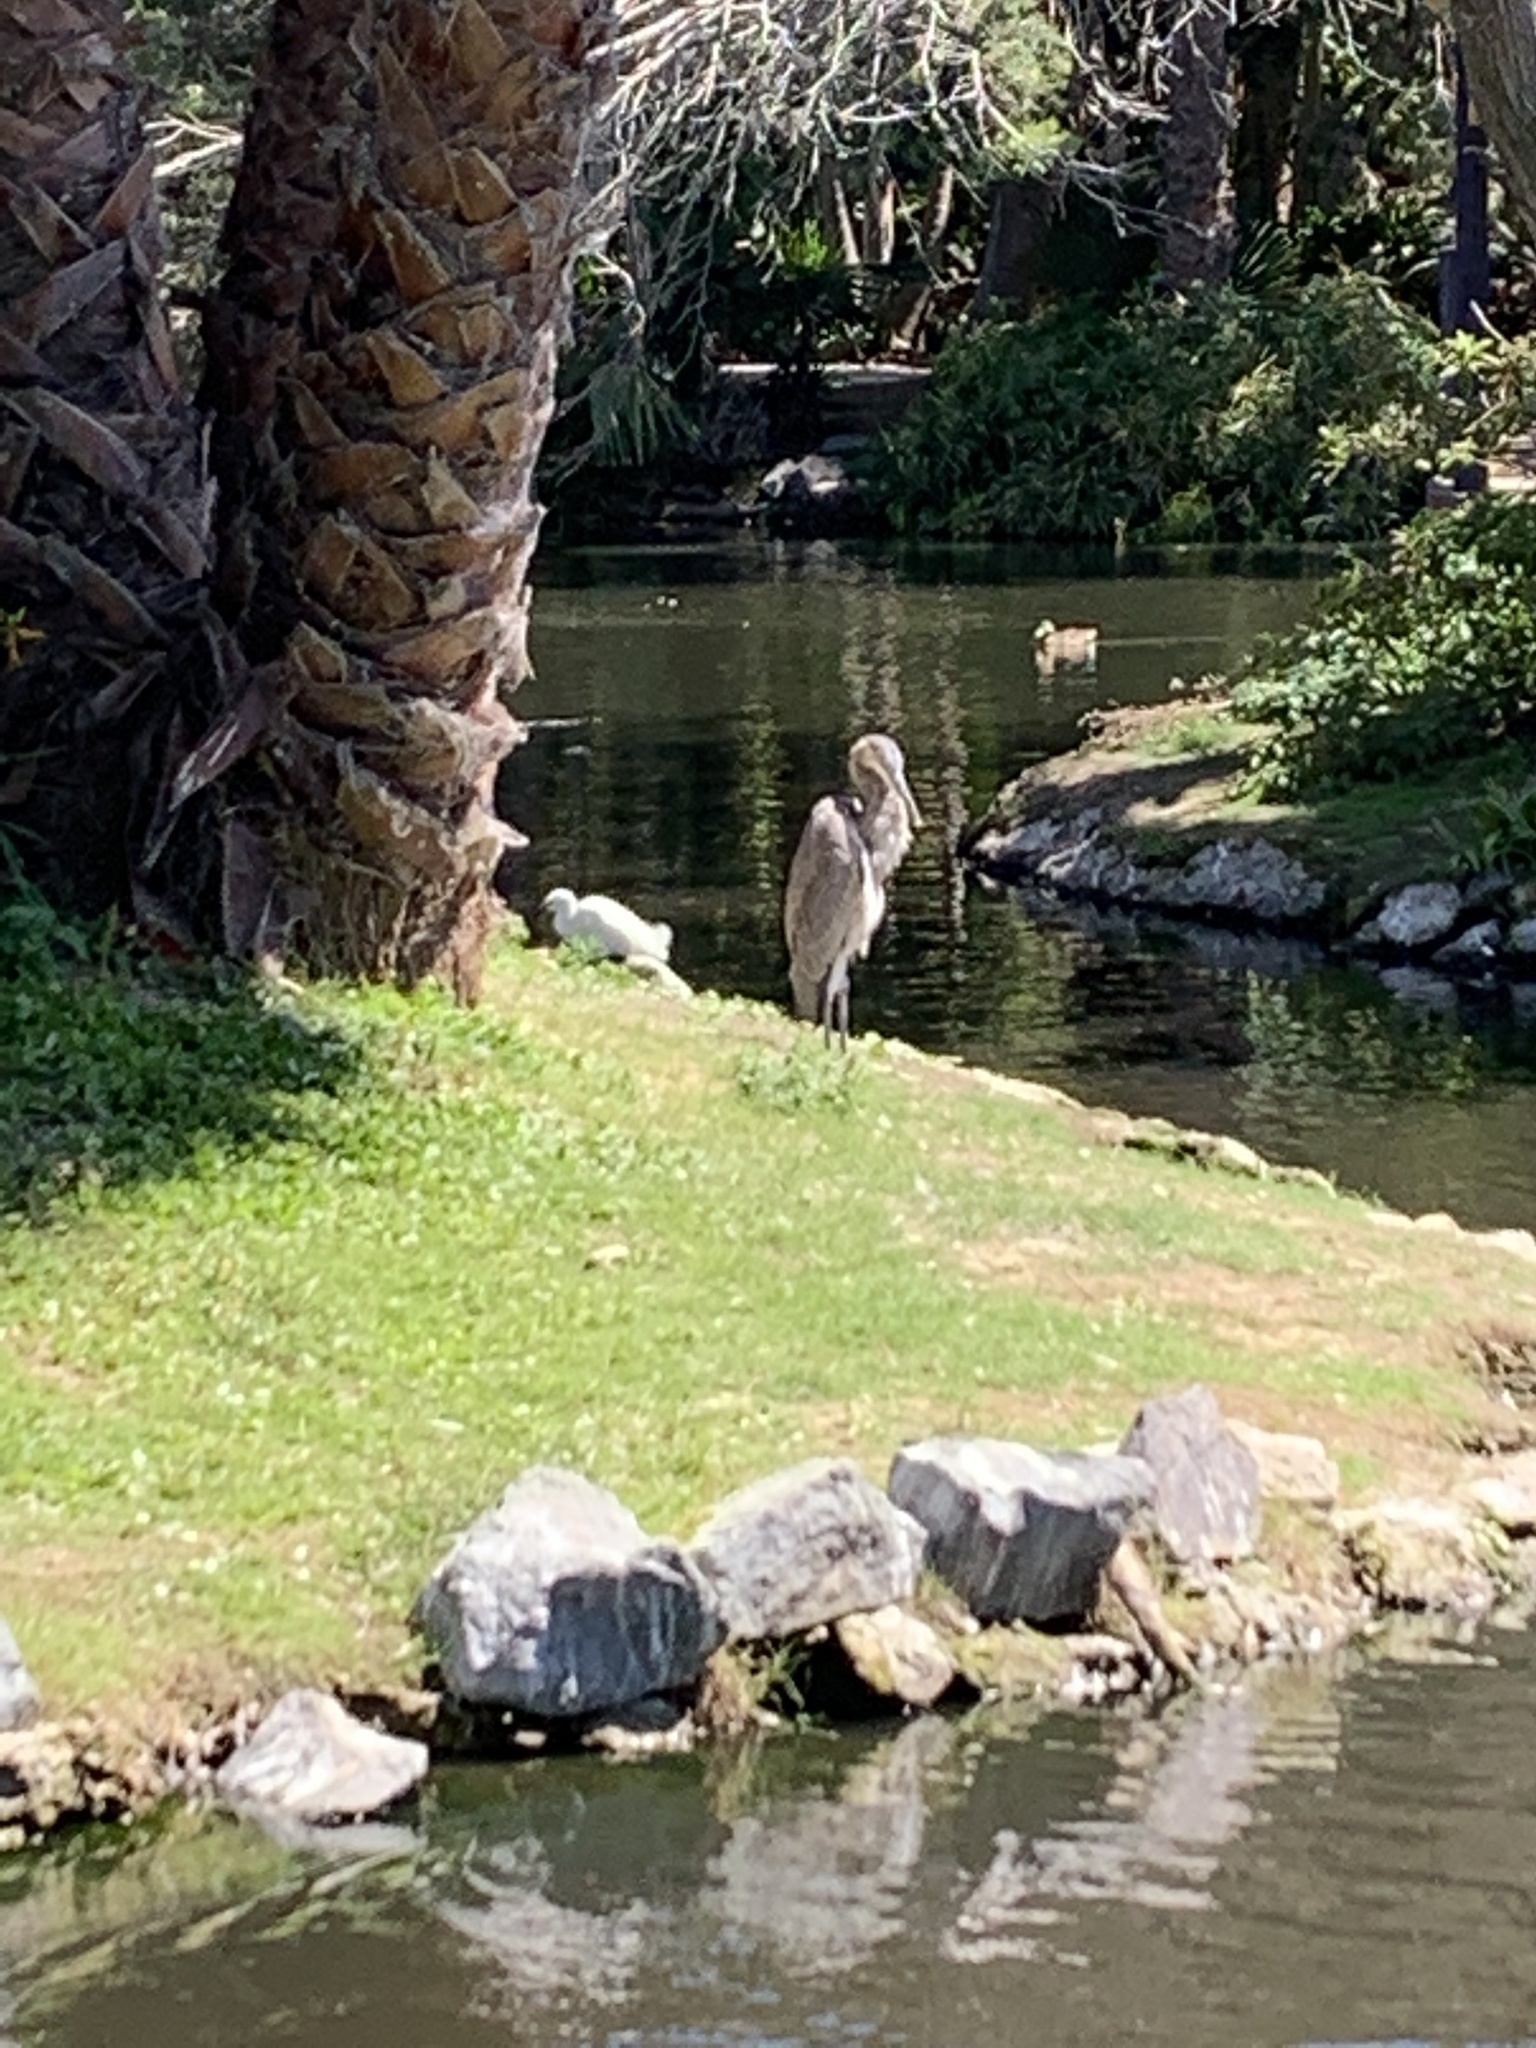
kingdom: Animalia
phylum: Chordata
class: Aves
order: Pelecaniformes
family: Ardeidae
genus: Ardea
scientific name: Ardea herodias
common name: Great blue heron
